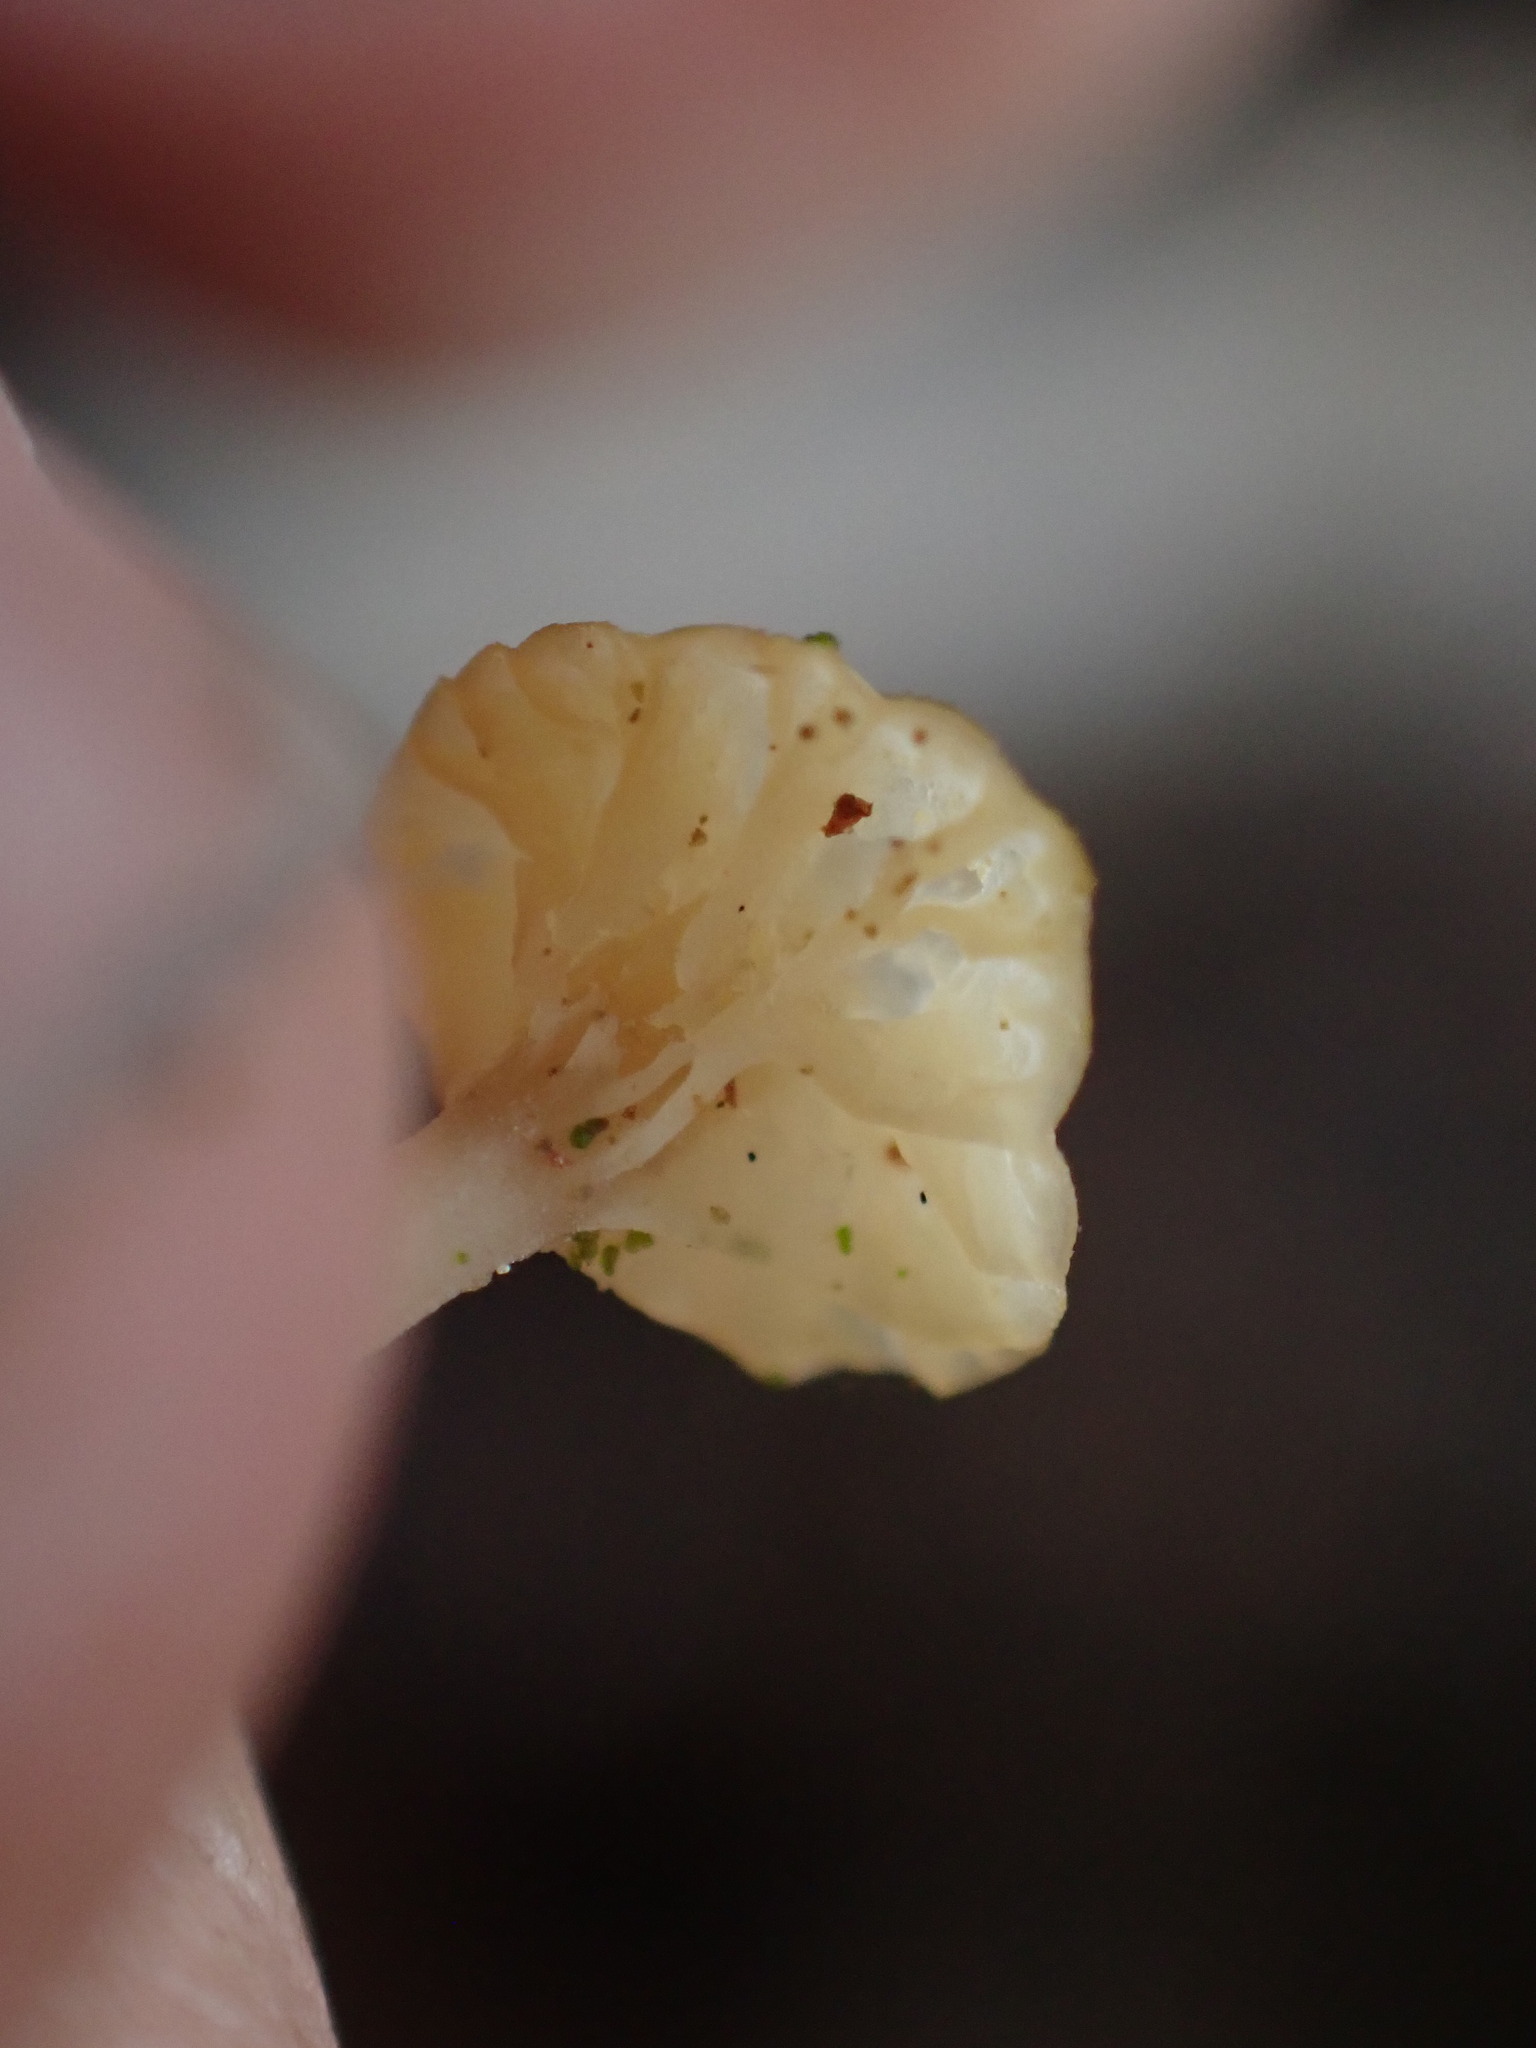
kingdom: Fungi
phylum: Basidiomycota
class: Agaricomycetes
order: Agaricales
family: Hygrophoraceae
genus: Lichenomphalia
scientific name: Lichenomphalia
